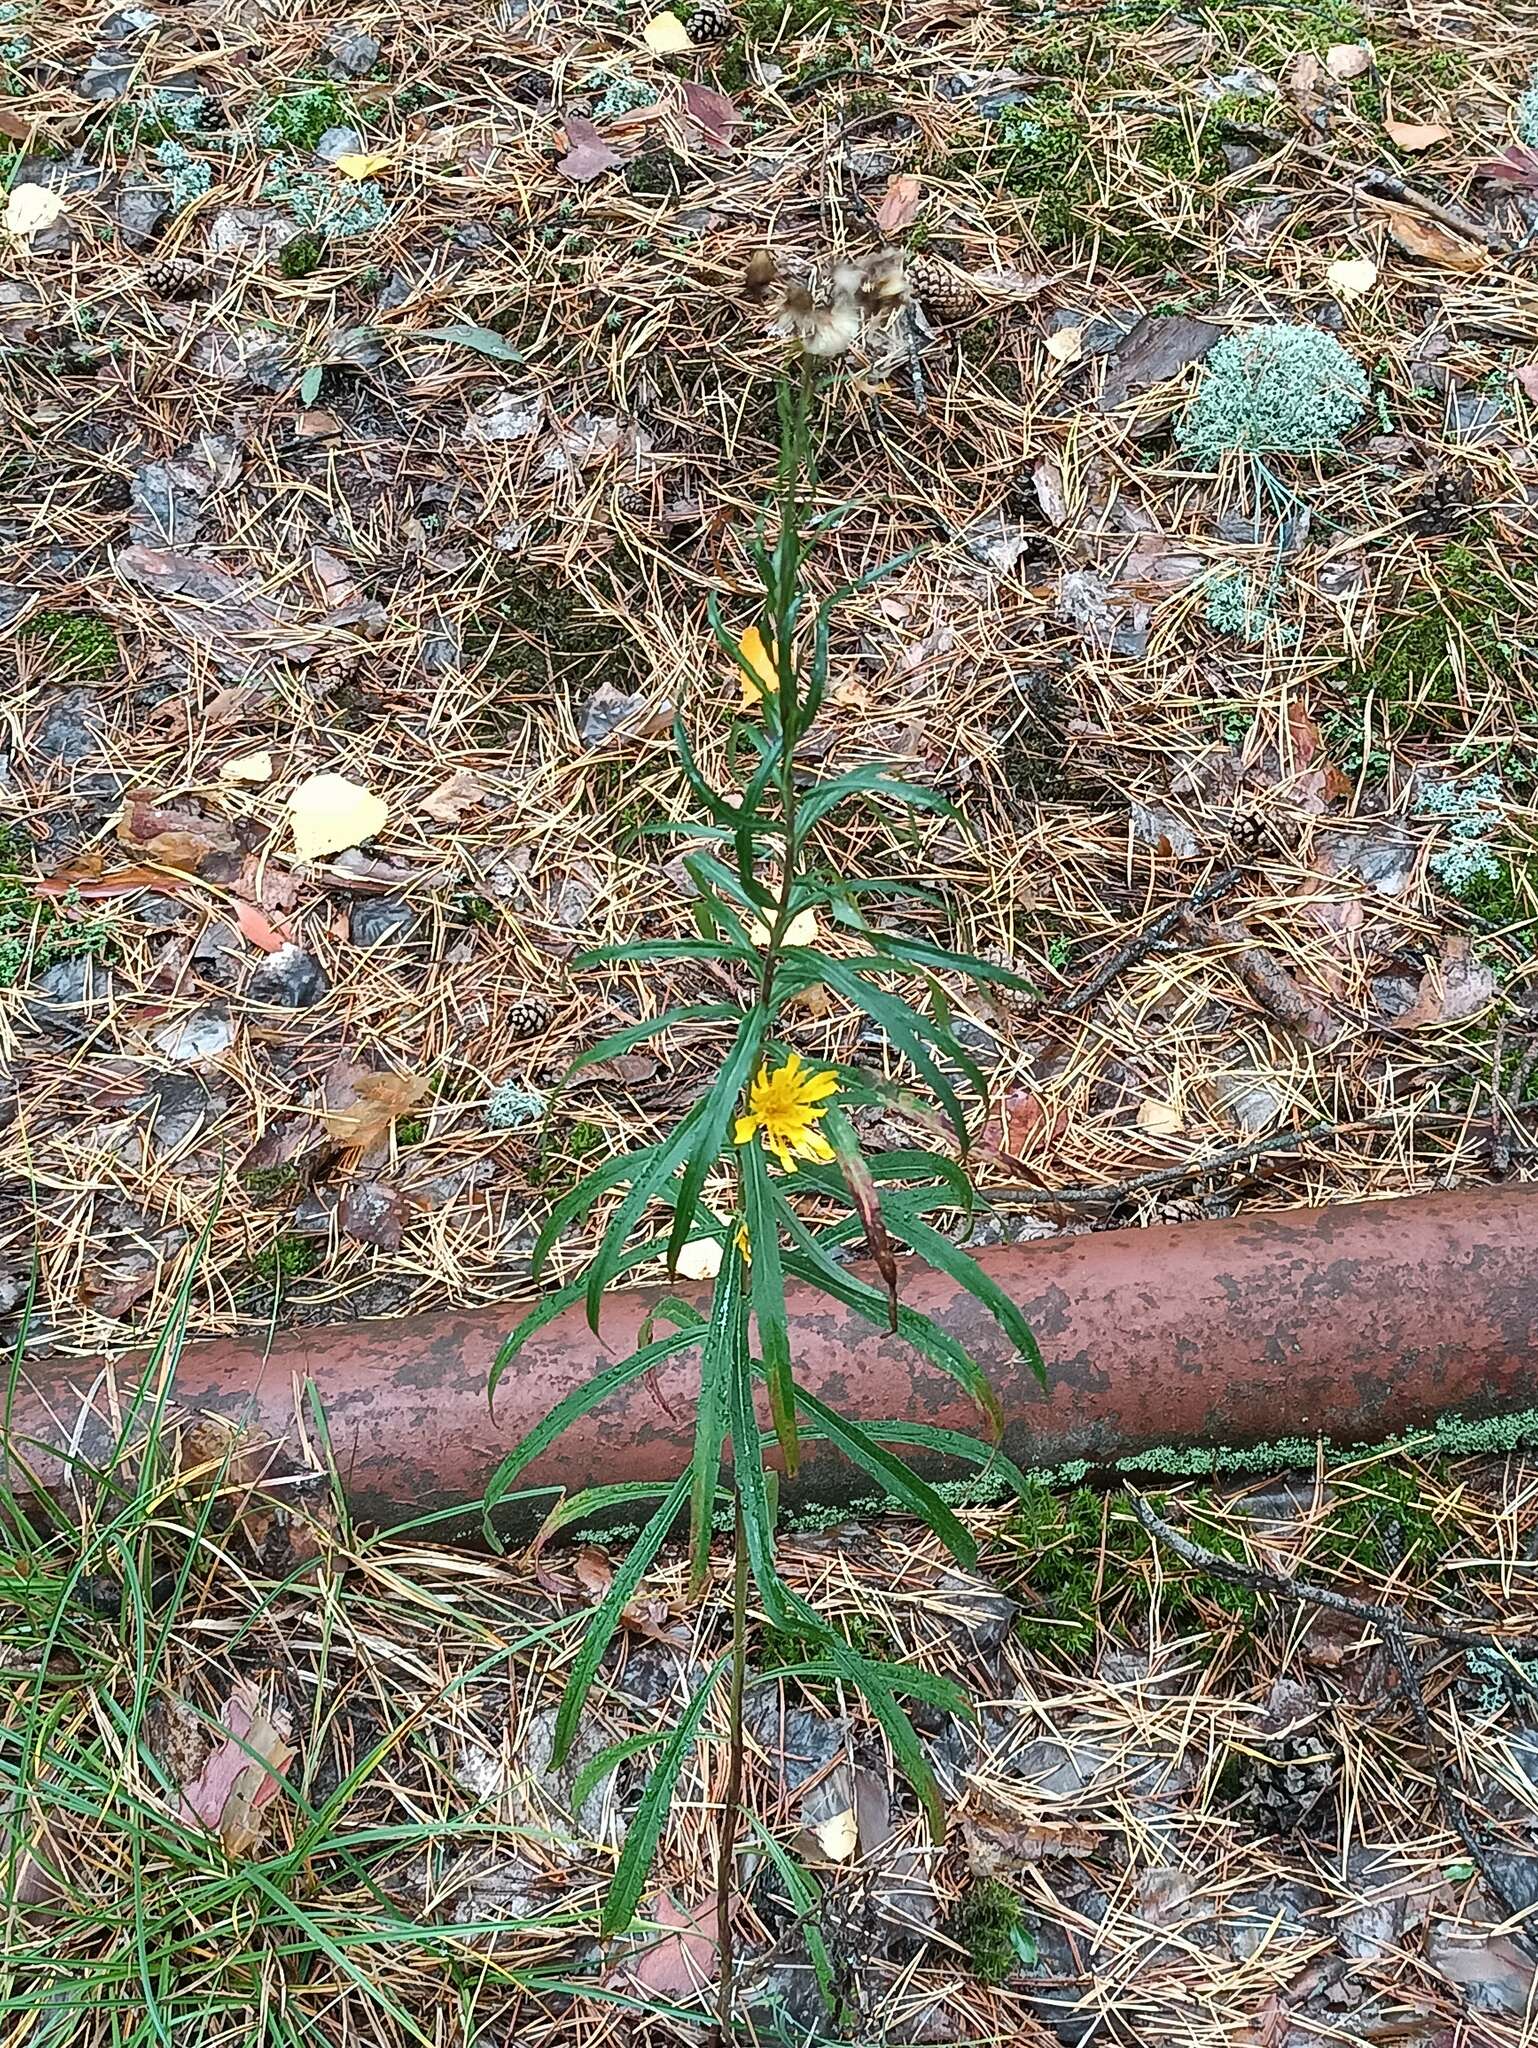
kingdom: Plantae
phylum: Tracheophyta
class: Magnoliopsida
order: Asterales
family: Asteraceae
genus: Hieracium
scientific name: Hieracium umbellatum
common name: Northern hawkweed
